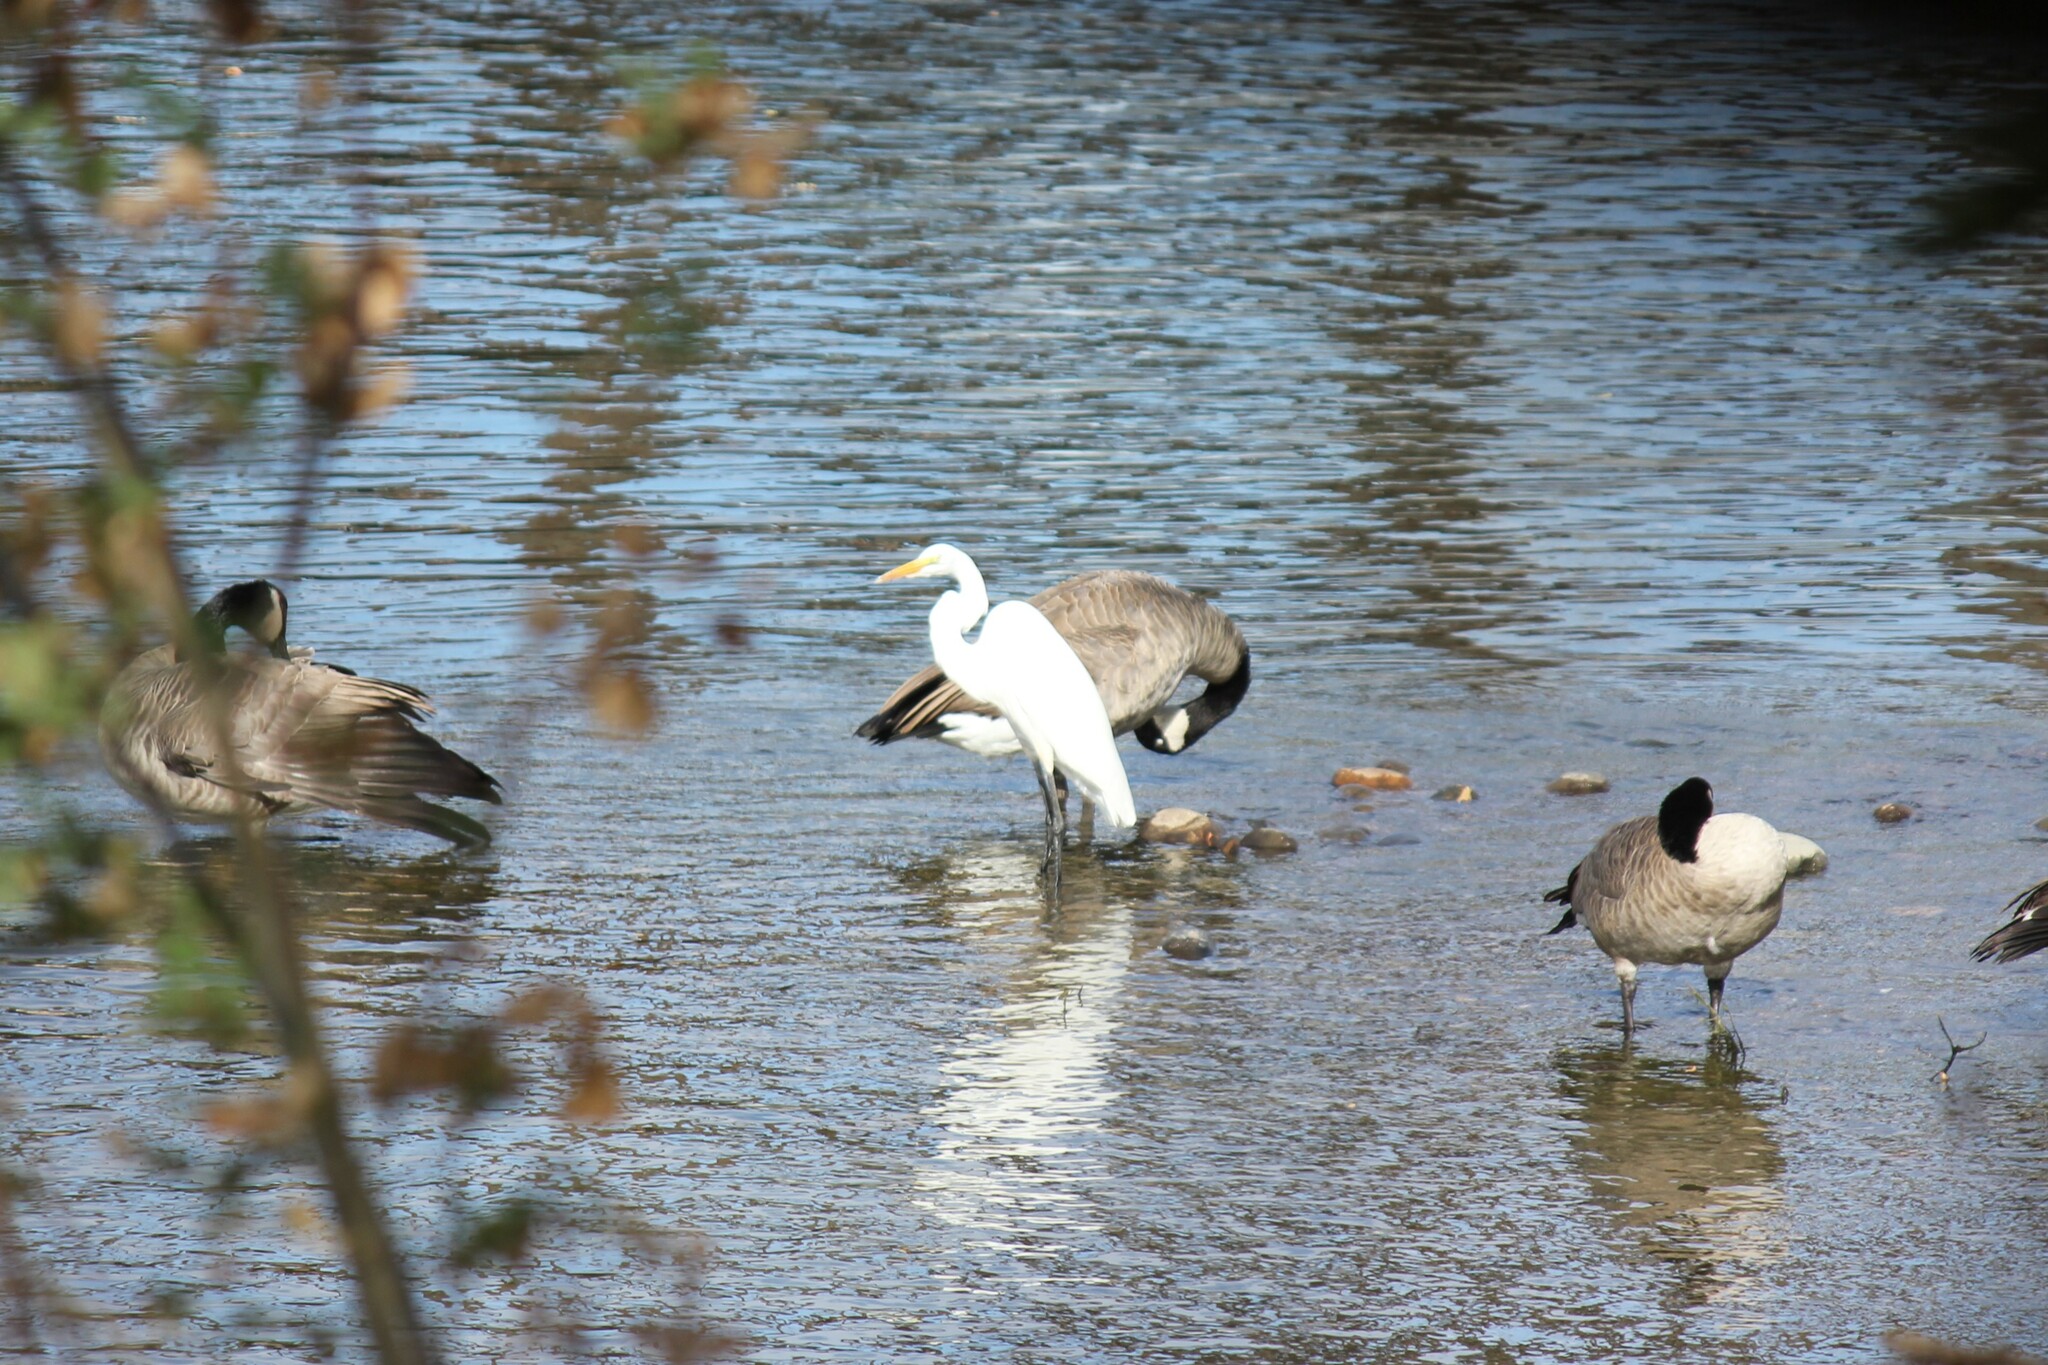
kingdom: Animalia
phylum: Chordata
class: Aves
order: Pelecaniformes
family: Ardeidae
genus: Ardea
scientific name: Ardea alba
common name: Great egret
